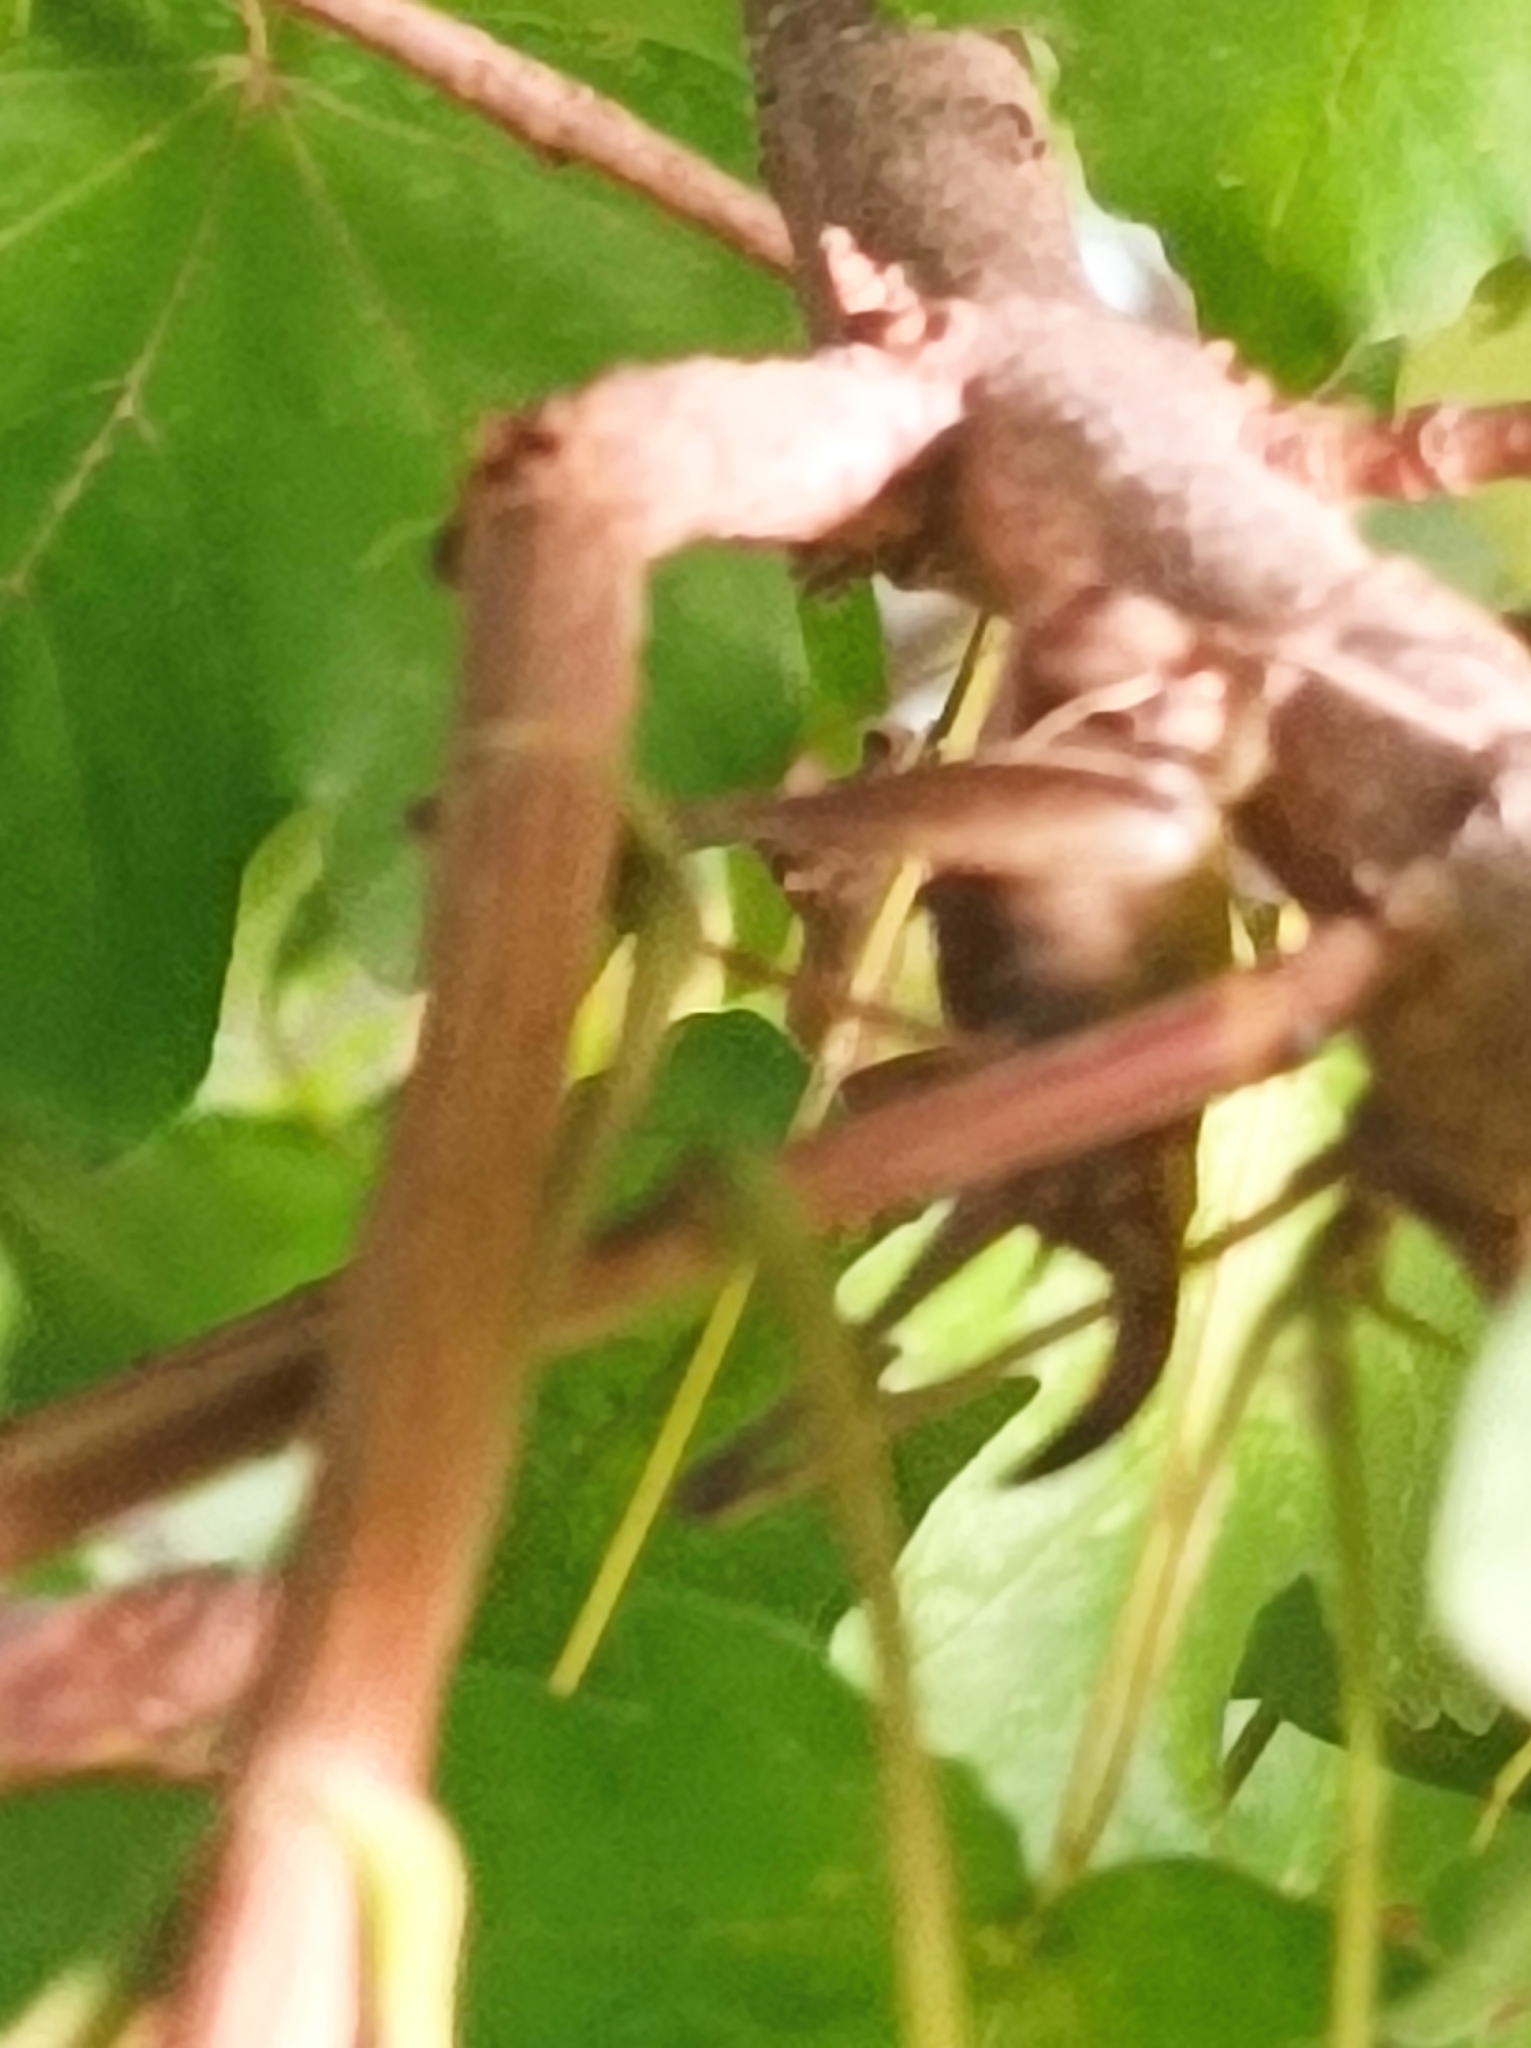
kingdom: Animalia
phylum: Arthropoda
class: Insecta
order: Orthoptera
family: Tettigoniidae
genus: Pholidoptera
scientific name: Pholidoptera griseoaptera
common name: Dark bush-cricket
